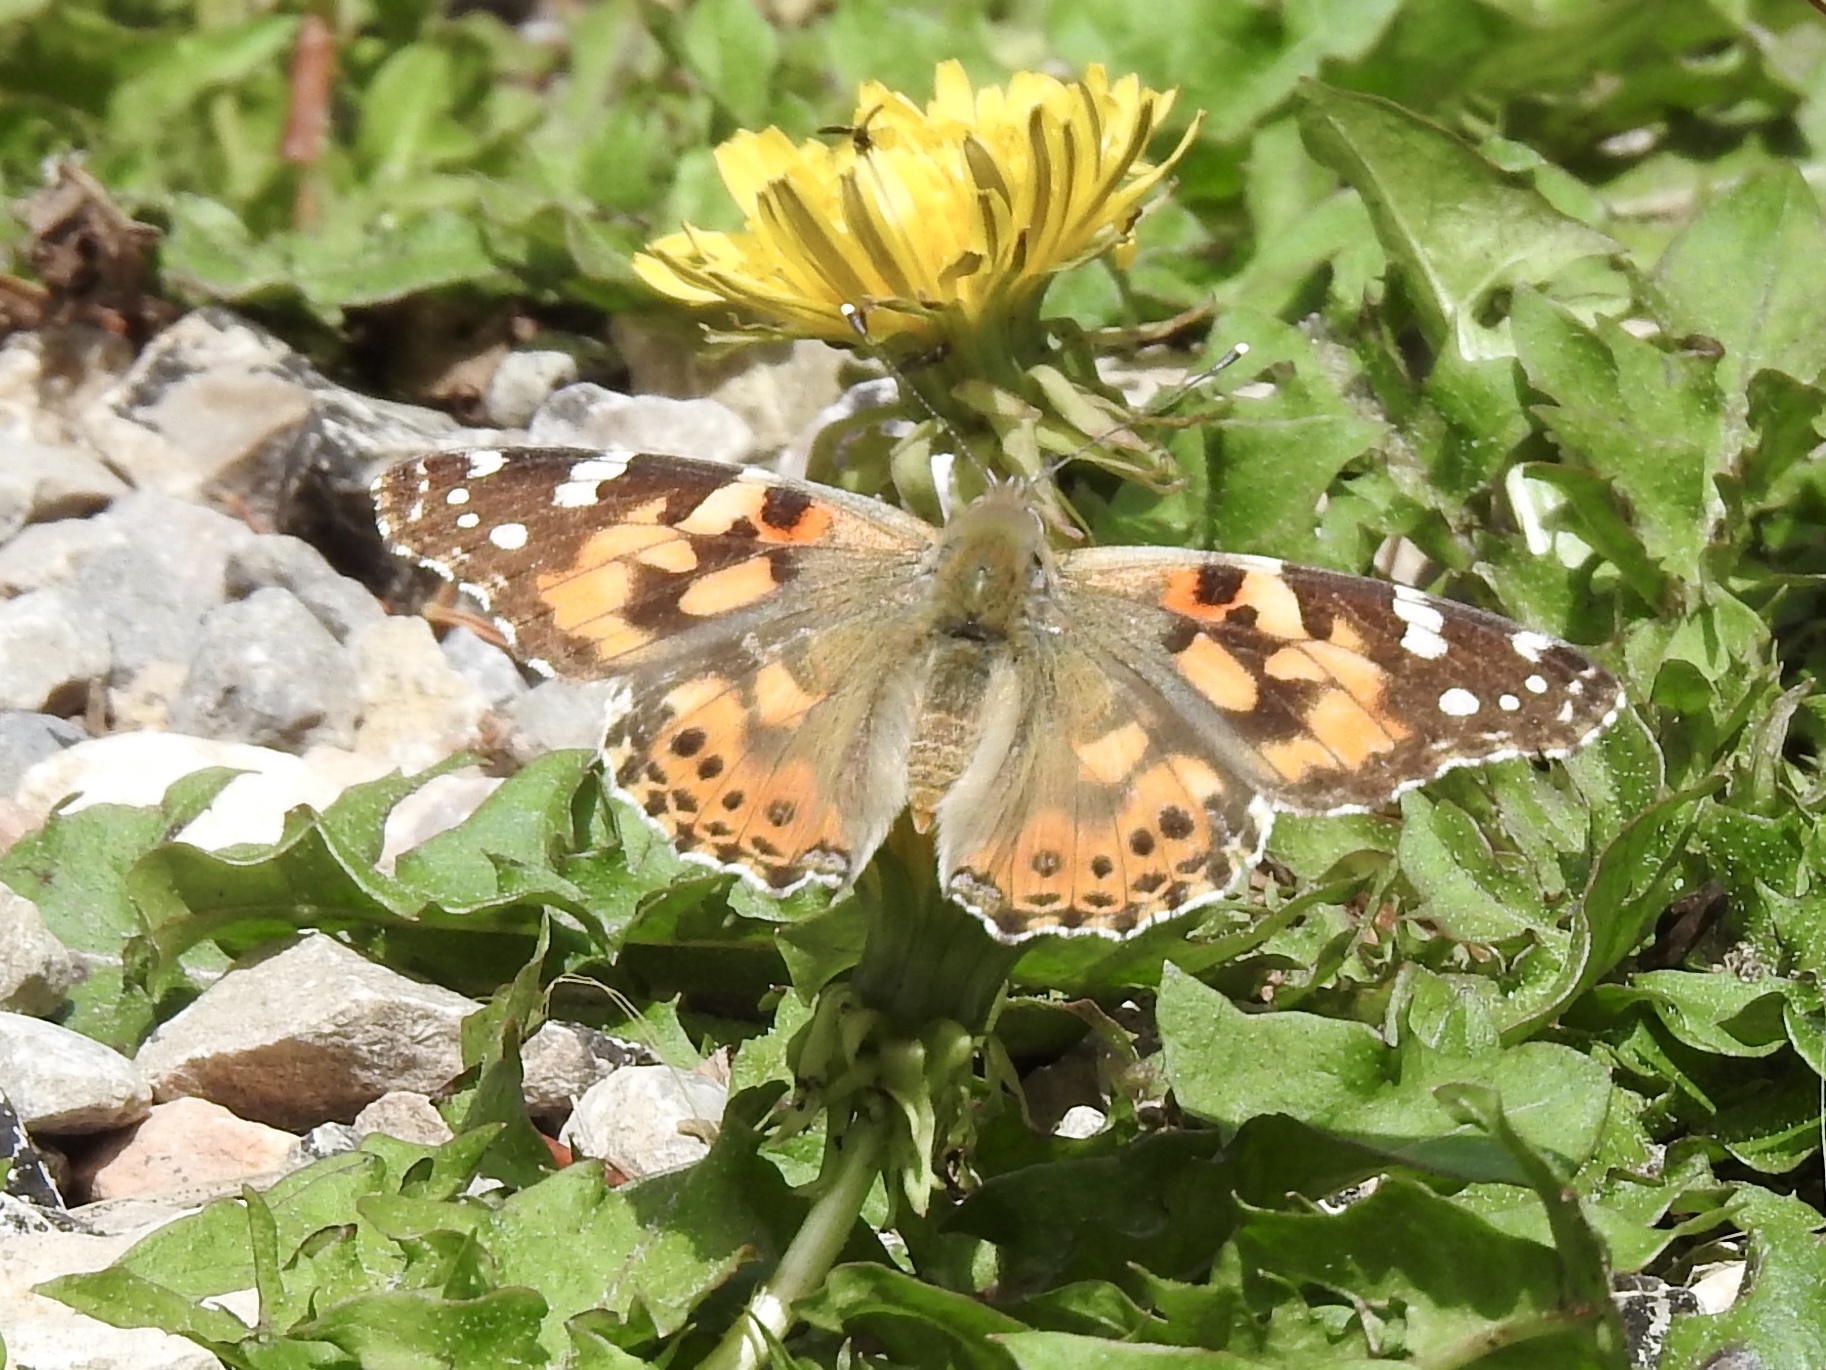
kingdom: Animalia
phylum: Arthropoda
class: Insecta
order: Lepidoptera
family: Nymphalidae
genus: Vanessa
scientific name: Vanessa cardui
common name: Painted lady
